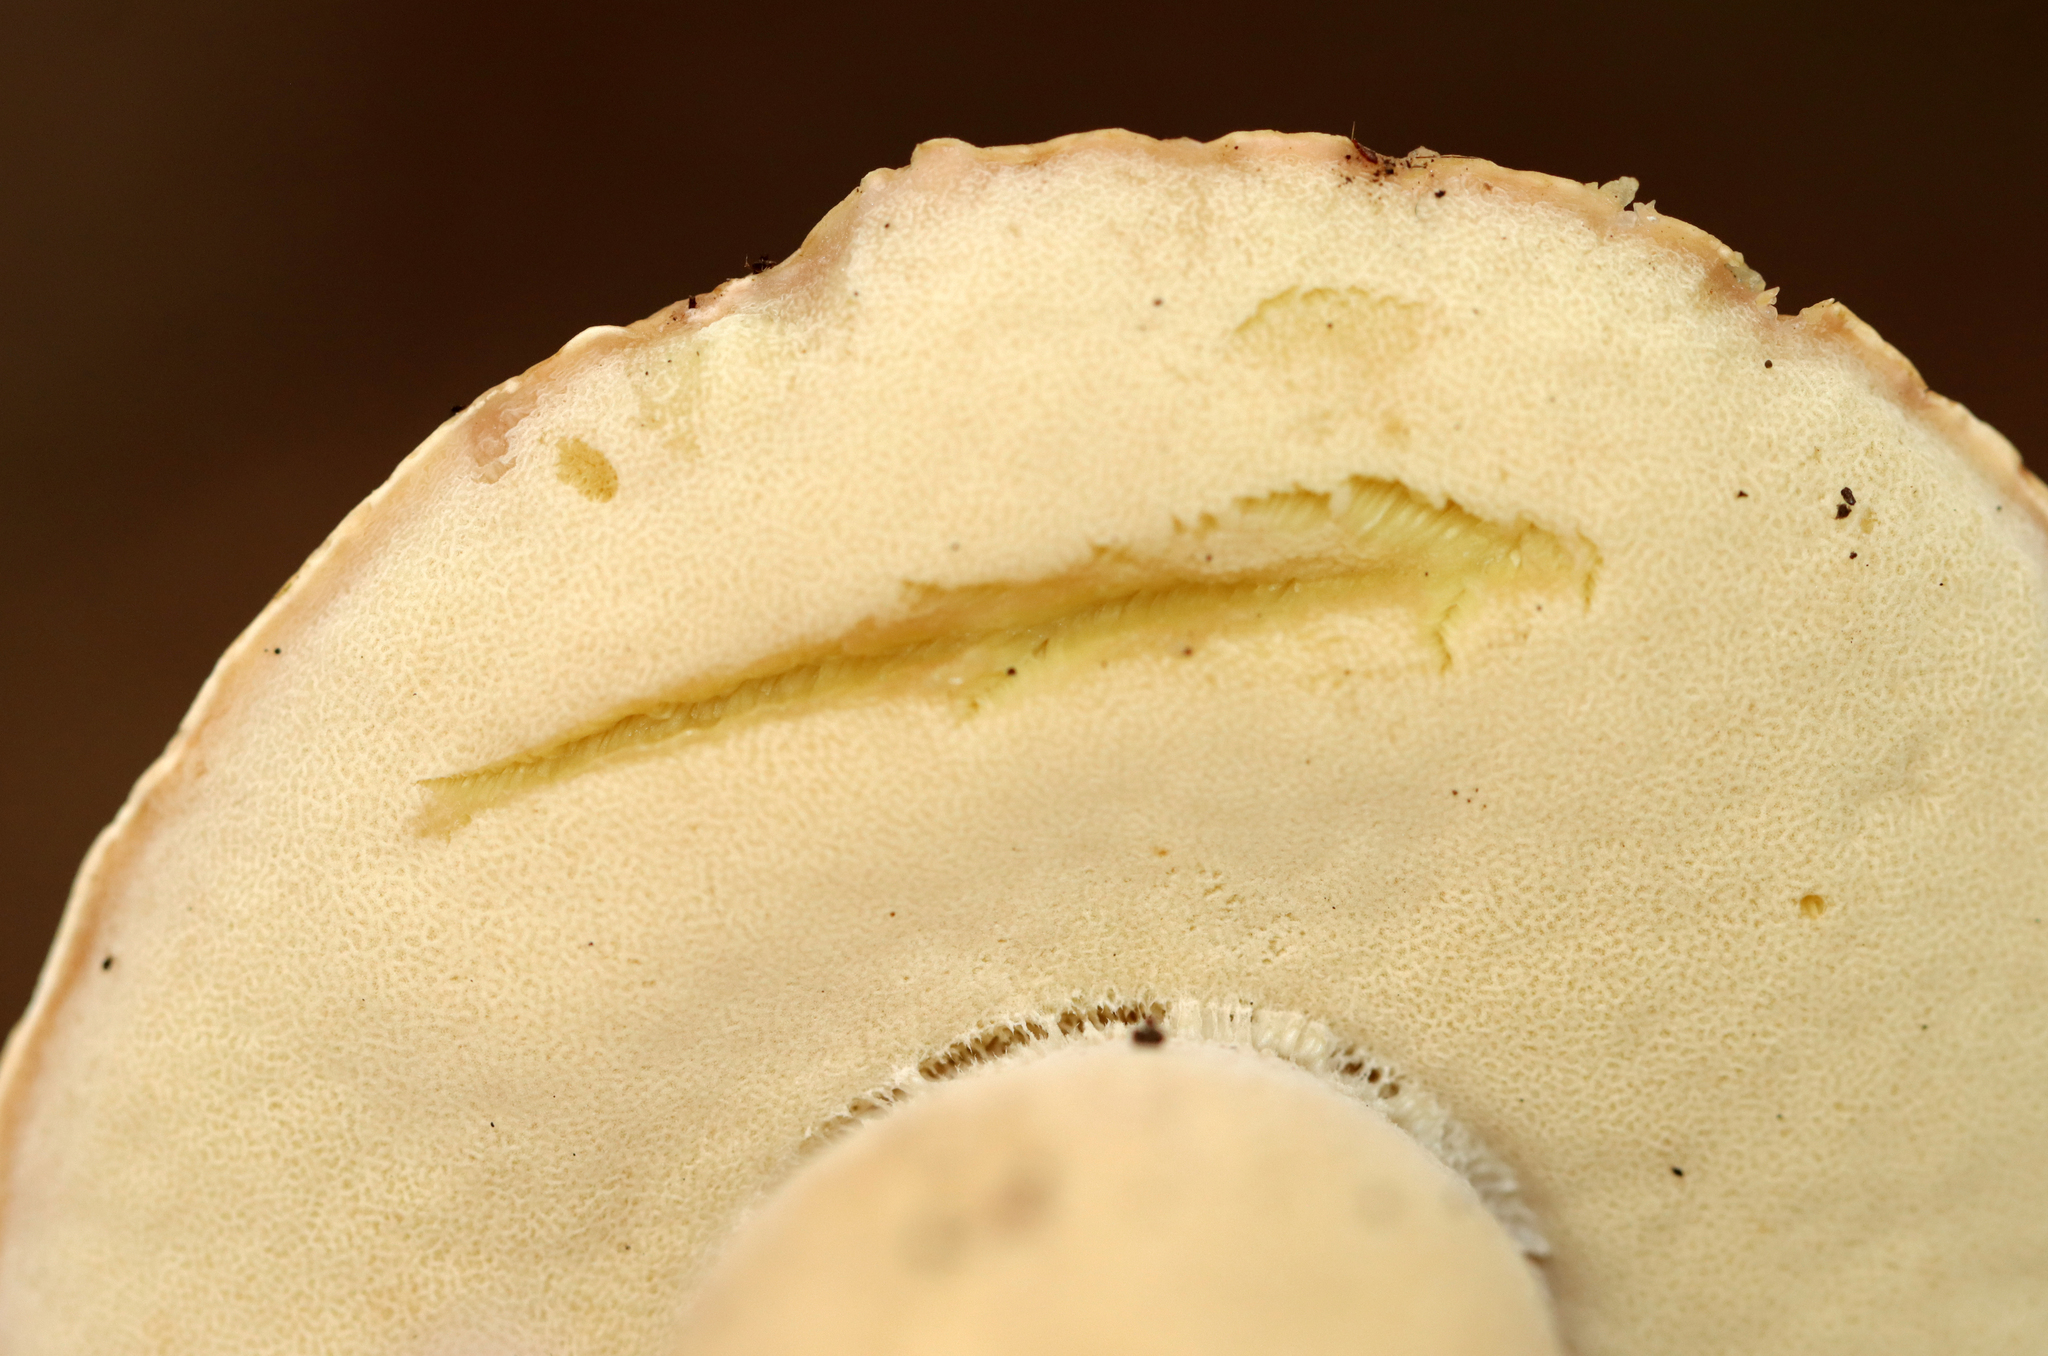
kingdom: Fungi
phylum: Basidiomycota
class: Agaricomycetes
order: Boletales
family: Boletaceae
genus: Boletus
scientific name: Boletus edulis
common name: Cep
